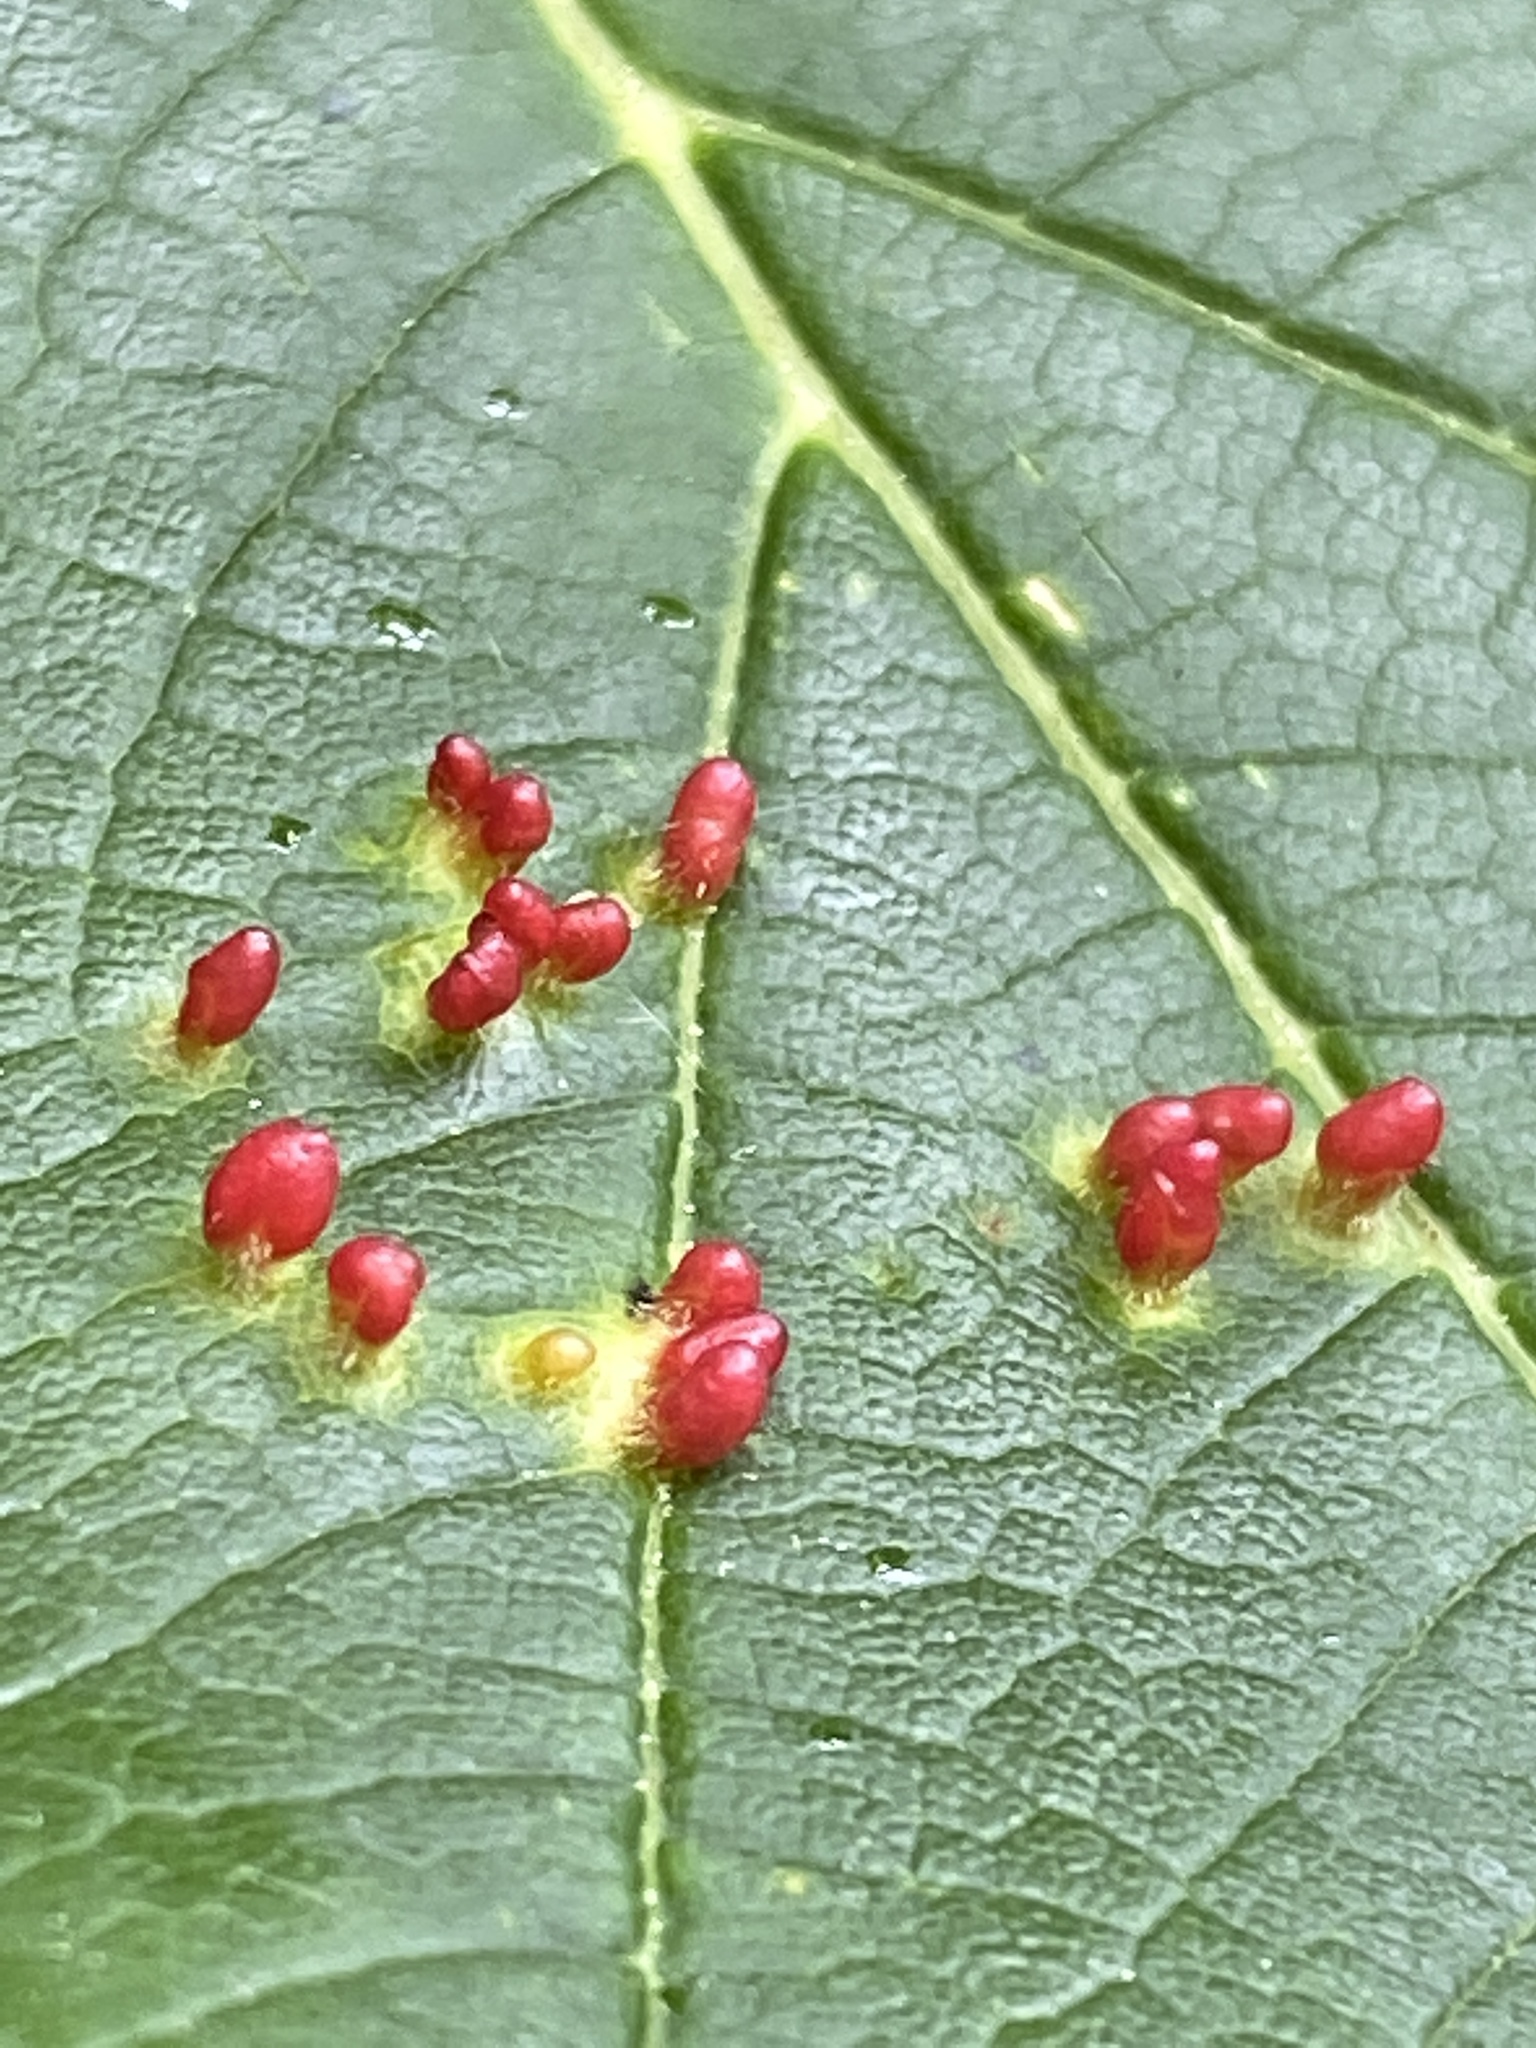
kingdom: Animalia
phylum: Arthropoda
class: Arachnida
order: Trombidiformes
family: Eriophyidae
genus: Aceria
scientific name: Aceria cephaloneus
